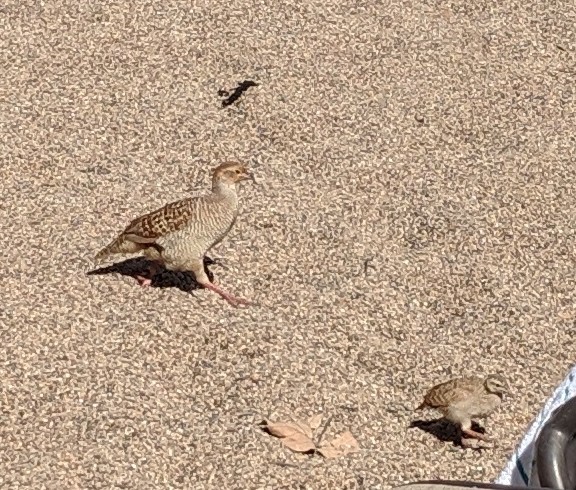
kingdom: Animalia
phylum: Chordata
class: Aves
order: Galliformes
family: Phasianidae
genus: Ortygornis
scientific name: Ortygornis pondicerianus
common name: Grey francolin
